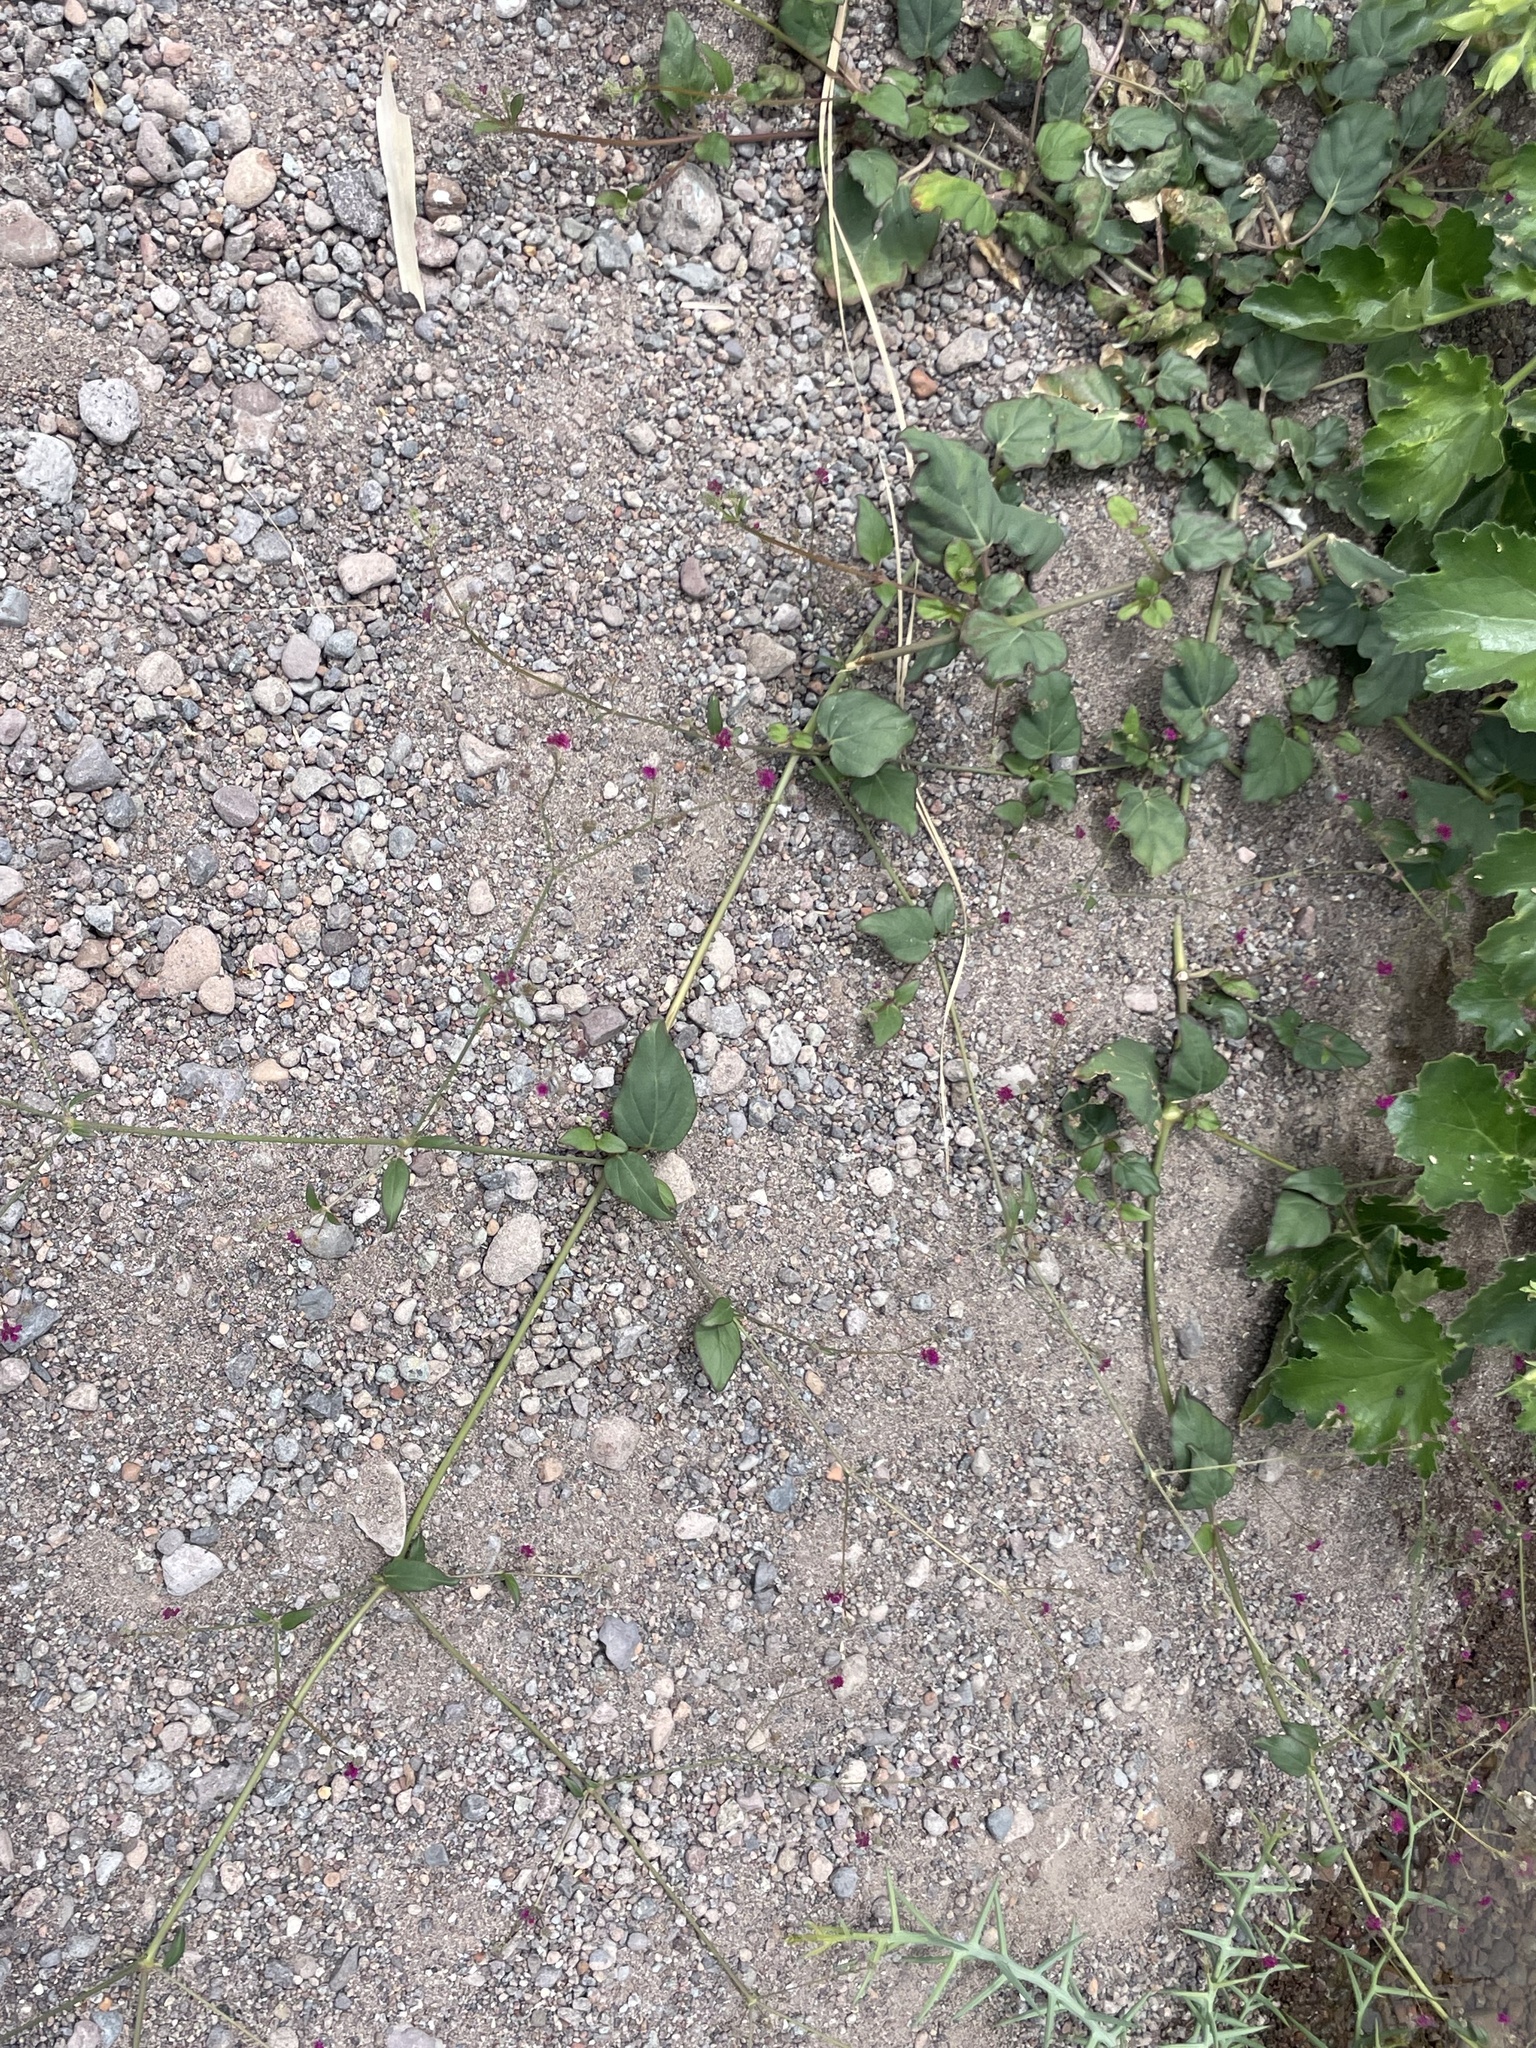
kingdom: Plantae
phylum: Tracheophyta
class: Magnoliopsida
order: Caryophyllales
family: Nyctaginaceae
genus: Boerhavia
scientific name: Boerhavia coccinea
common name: Scarlet spiderling
